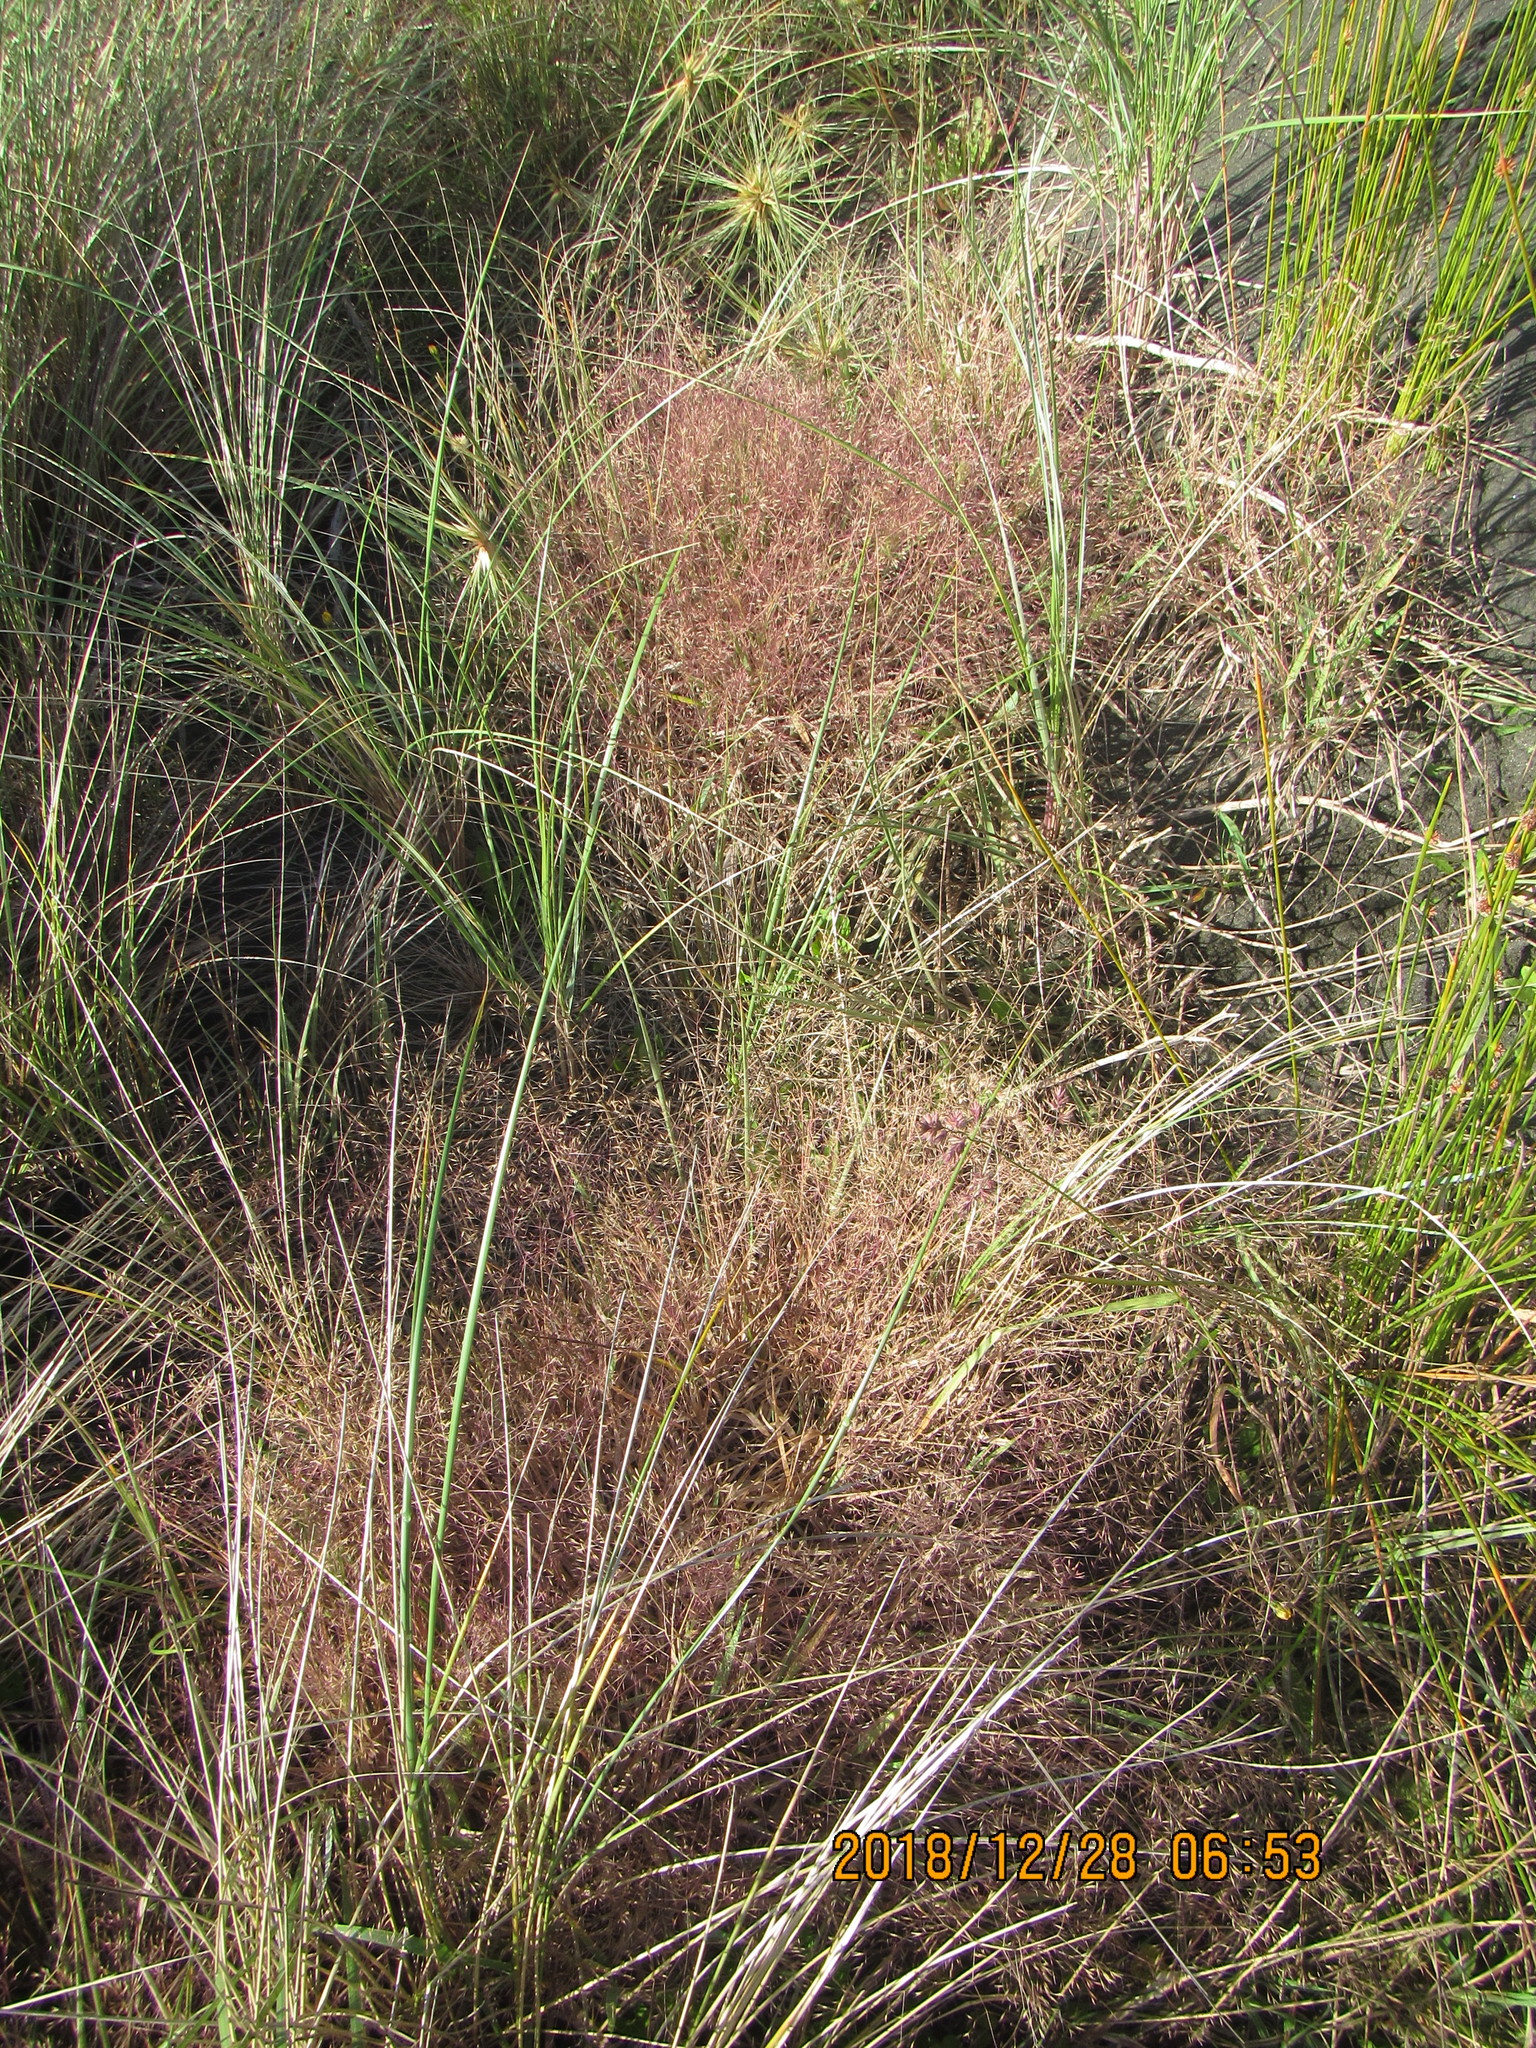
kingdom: Plantae
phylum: Tracheophyta
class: Liliopsida
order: Poales
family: Poaceae
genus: Lachnagrostis
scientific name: Lachnagrostis billardierei
